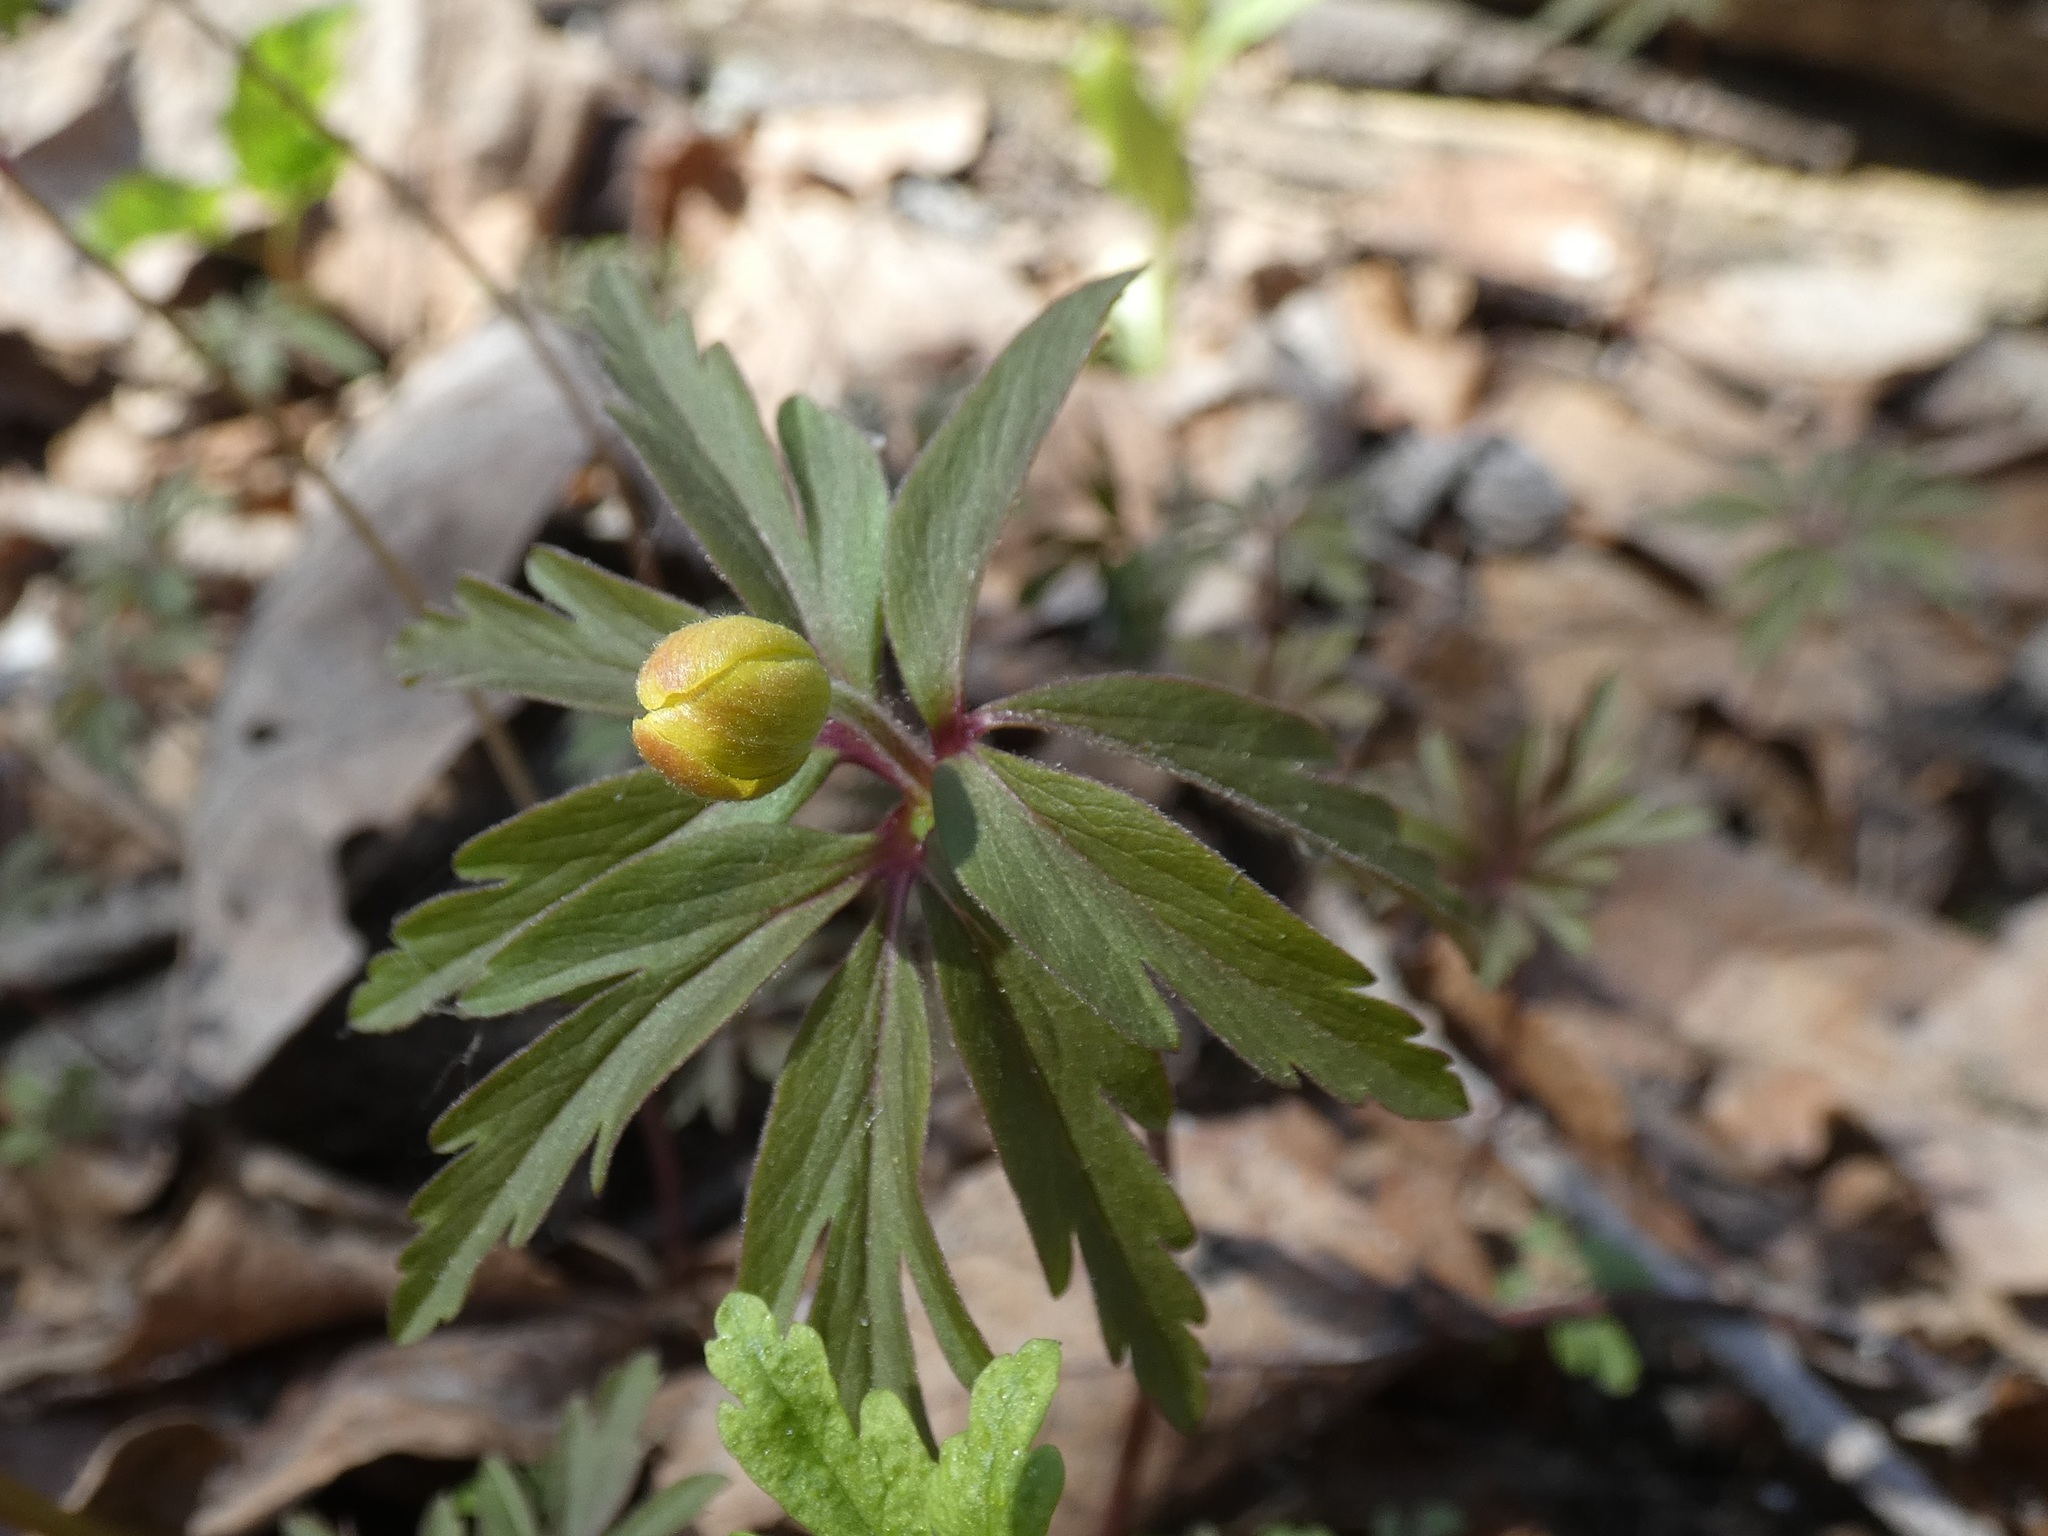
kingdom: Plantae
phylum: Tracheophyta
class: Magnoliopsida
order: Ranunculales
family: Ranunculaceae
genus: Anemone
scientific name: Anemone ranunculoides
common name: Yellow anemone
